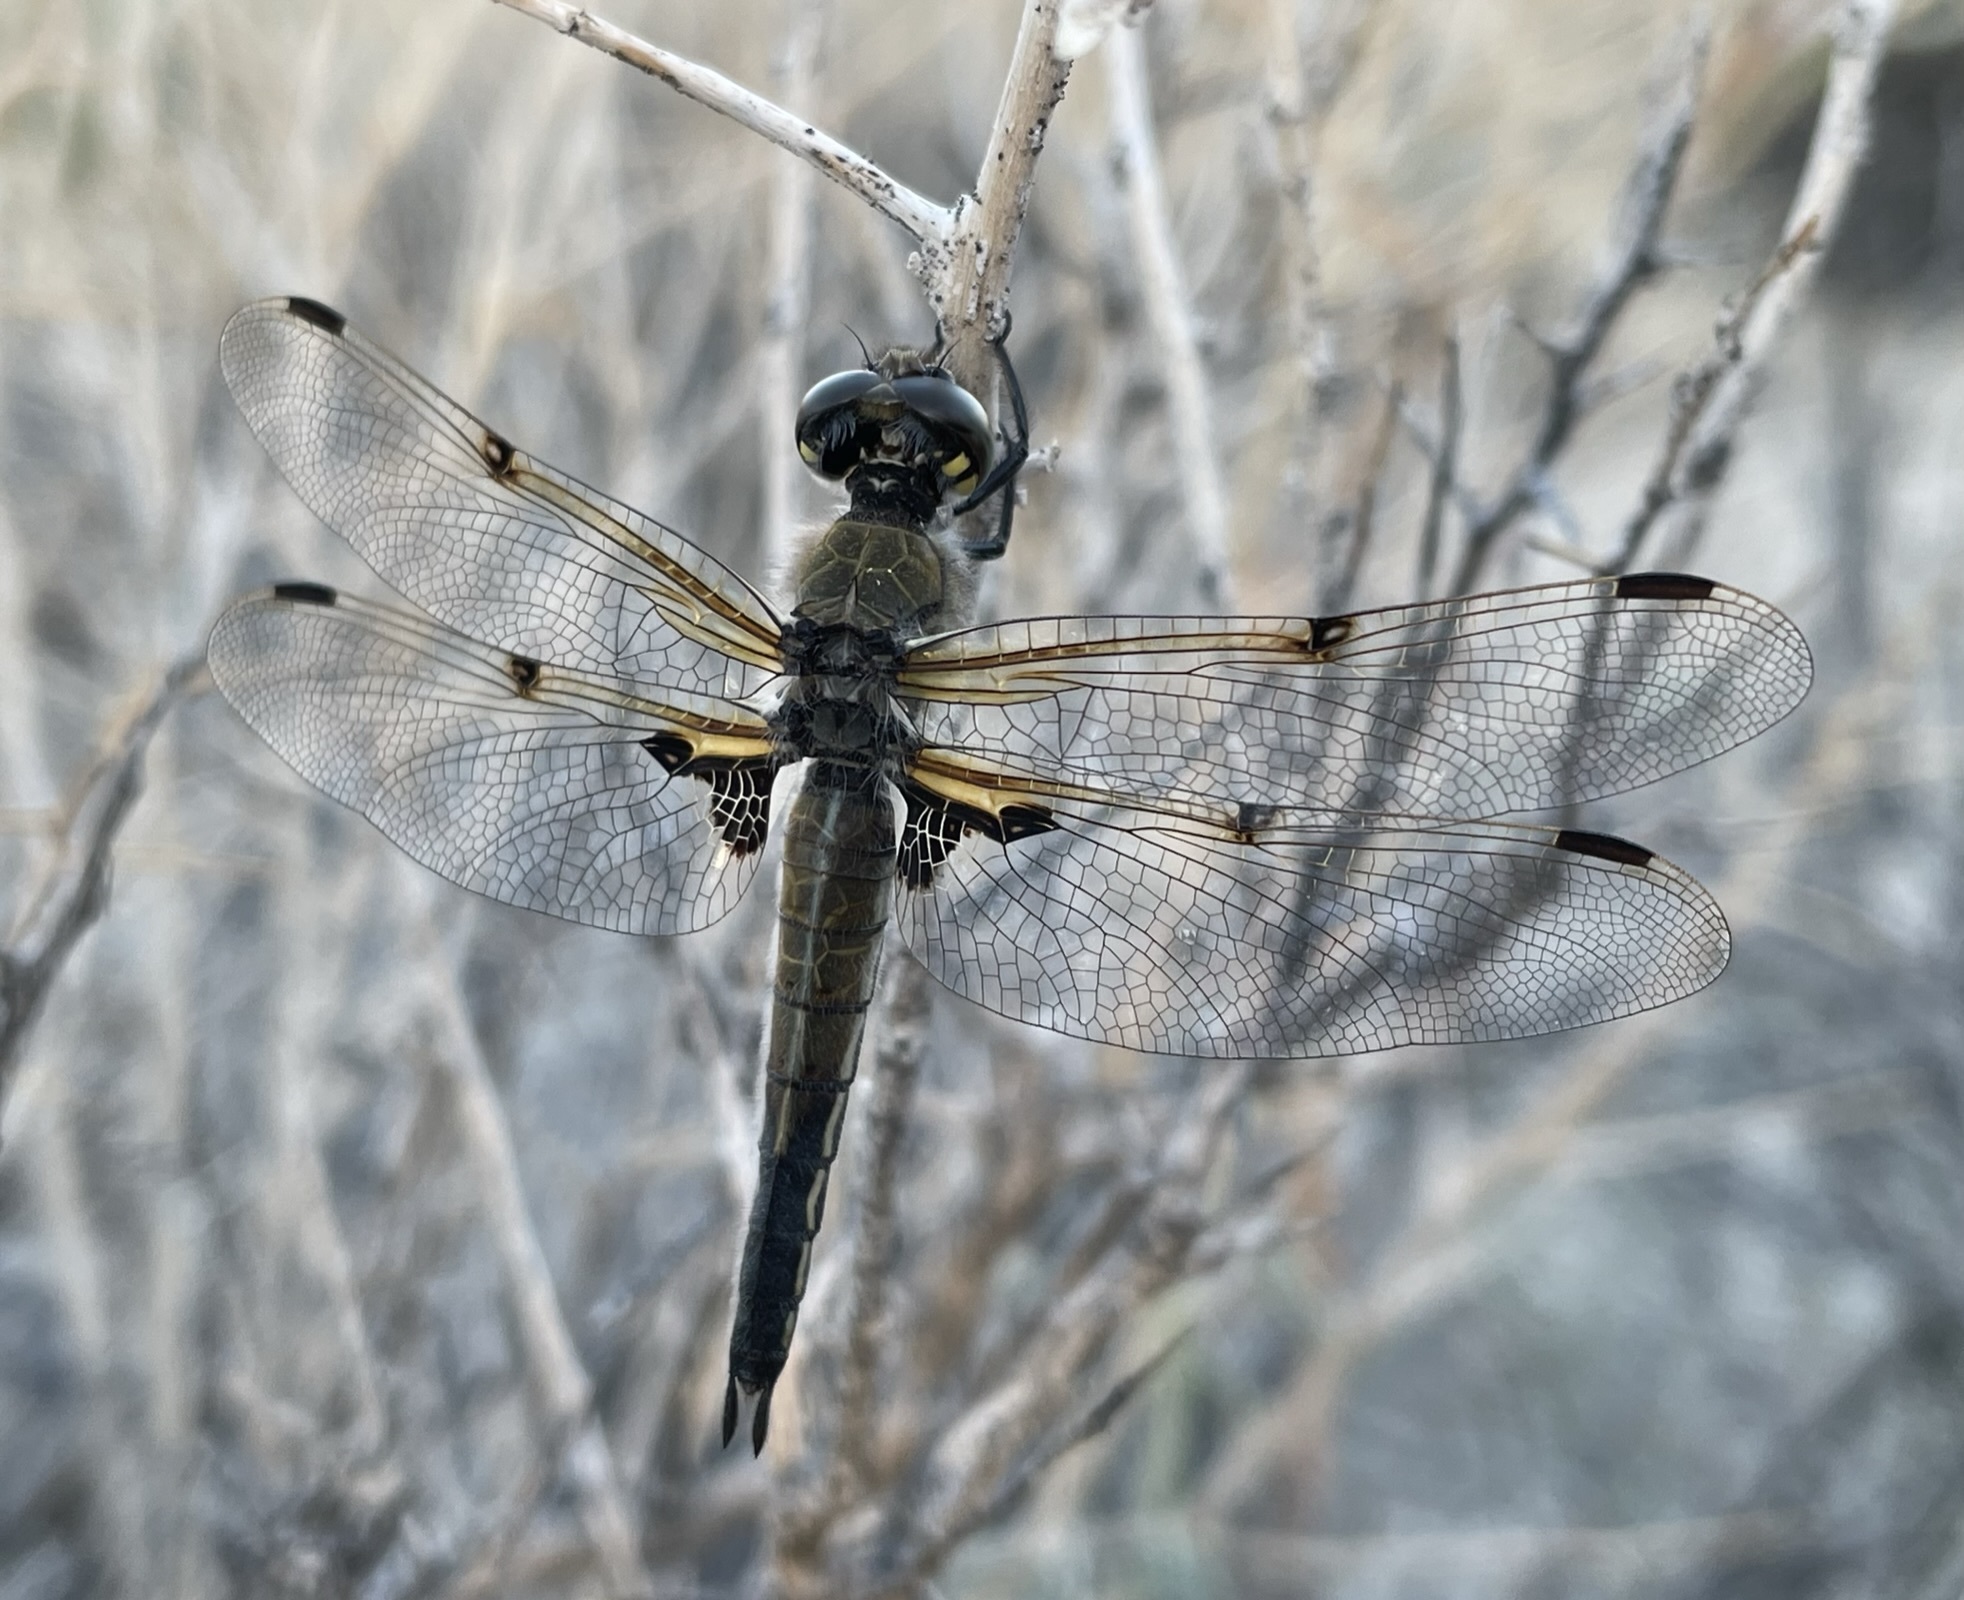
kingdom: Animalia
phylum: Arthropoda
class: Insecta
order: Odonata
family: Libellulidae
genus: Libellula
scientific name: Libellula quadrimaculata
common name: Four-spotted chaser
